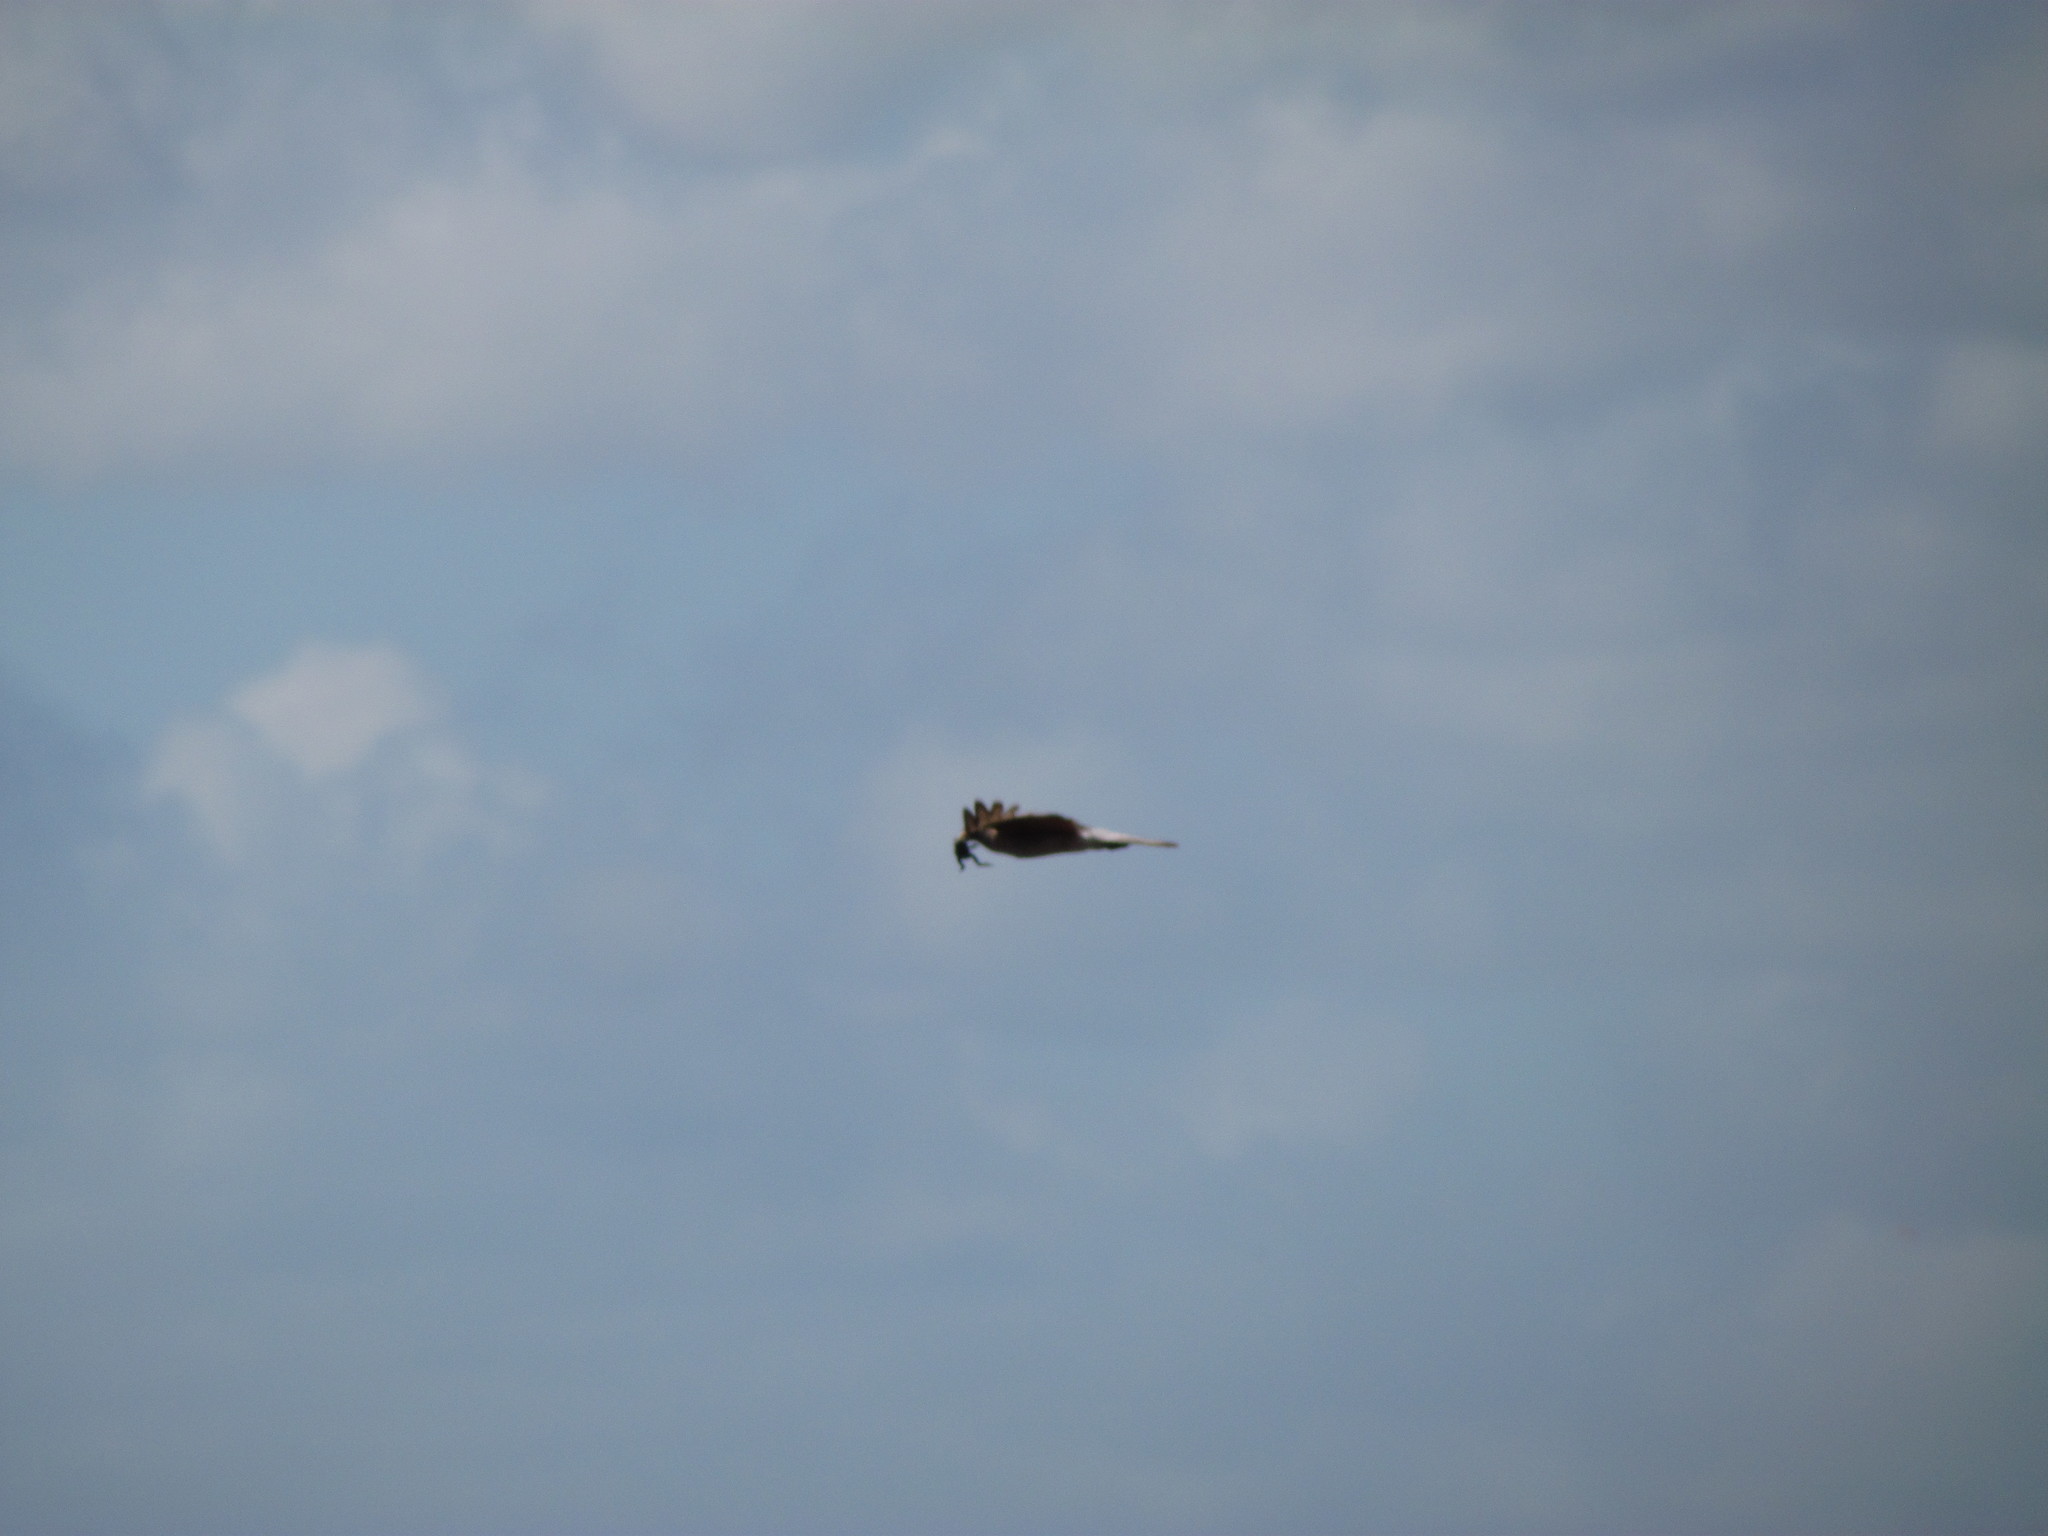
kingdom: Animalia
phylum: Chordata
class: Aves
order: Falconiformes
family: Falconidae
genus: Daptrius
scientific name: Daptrius
